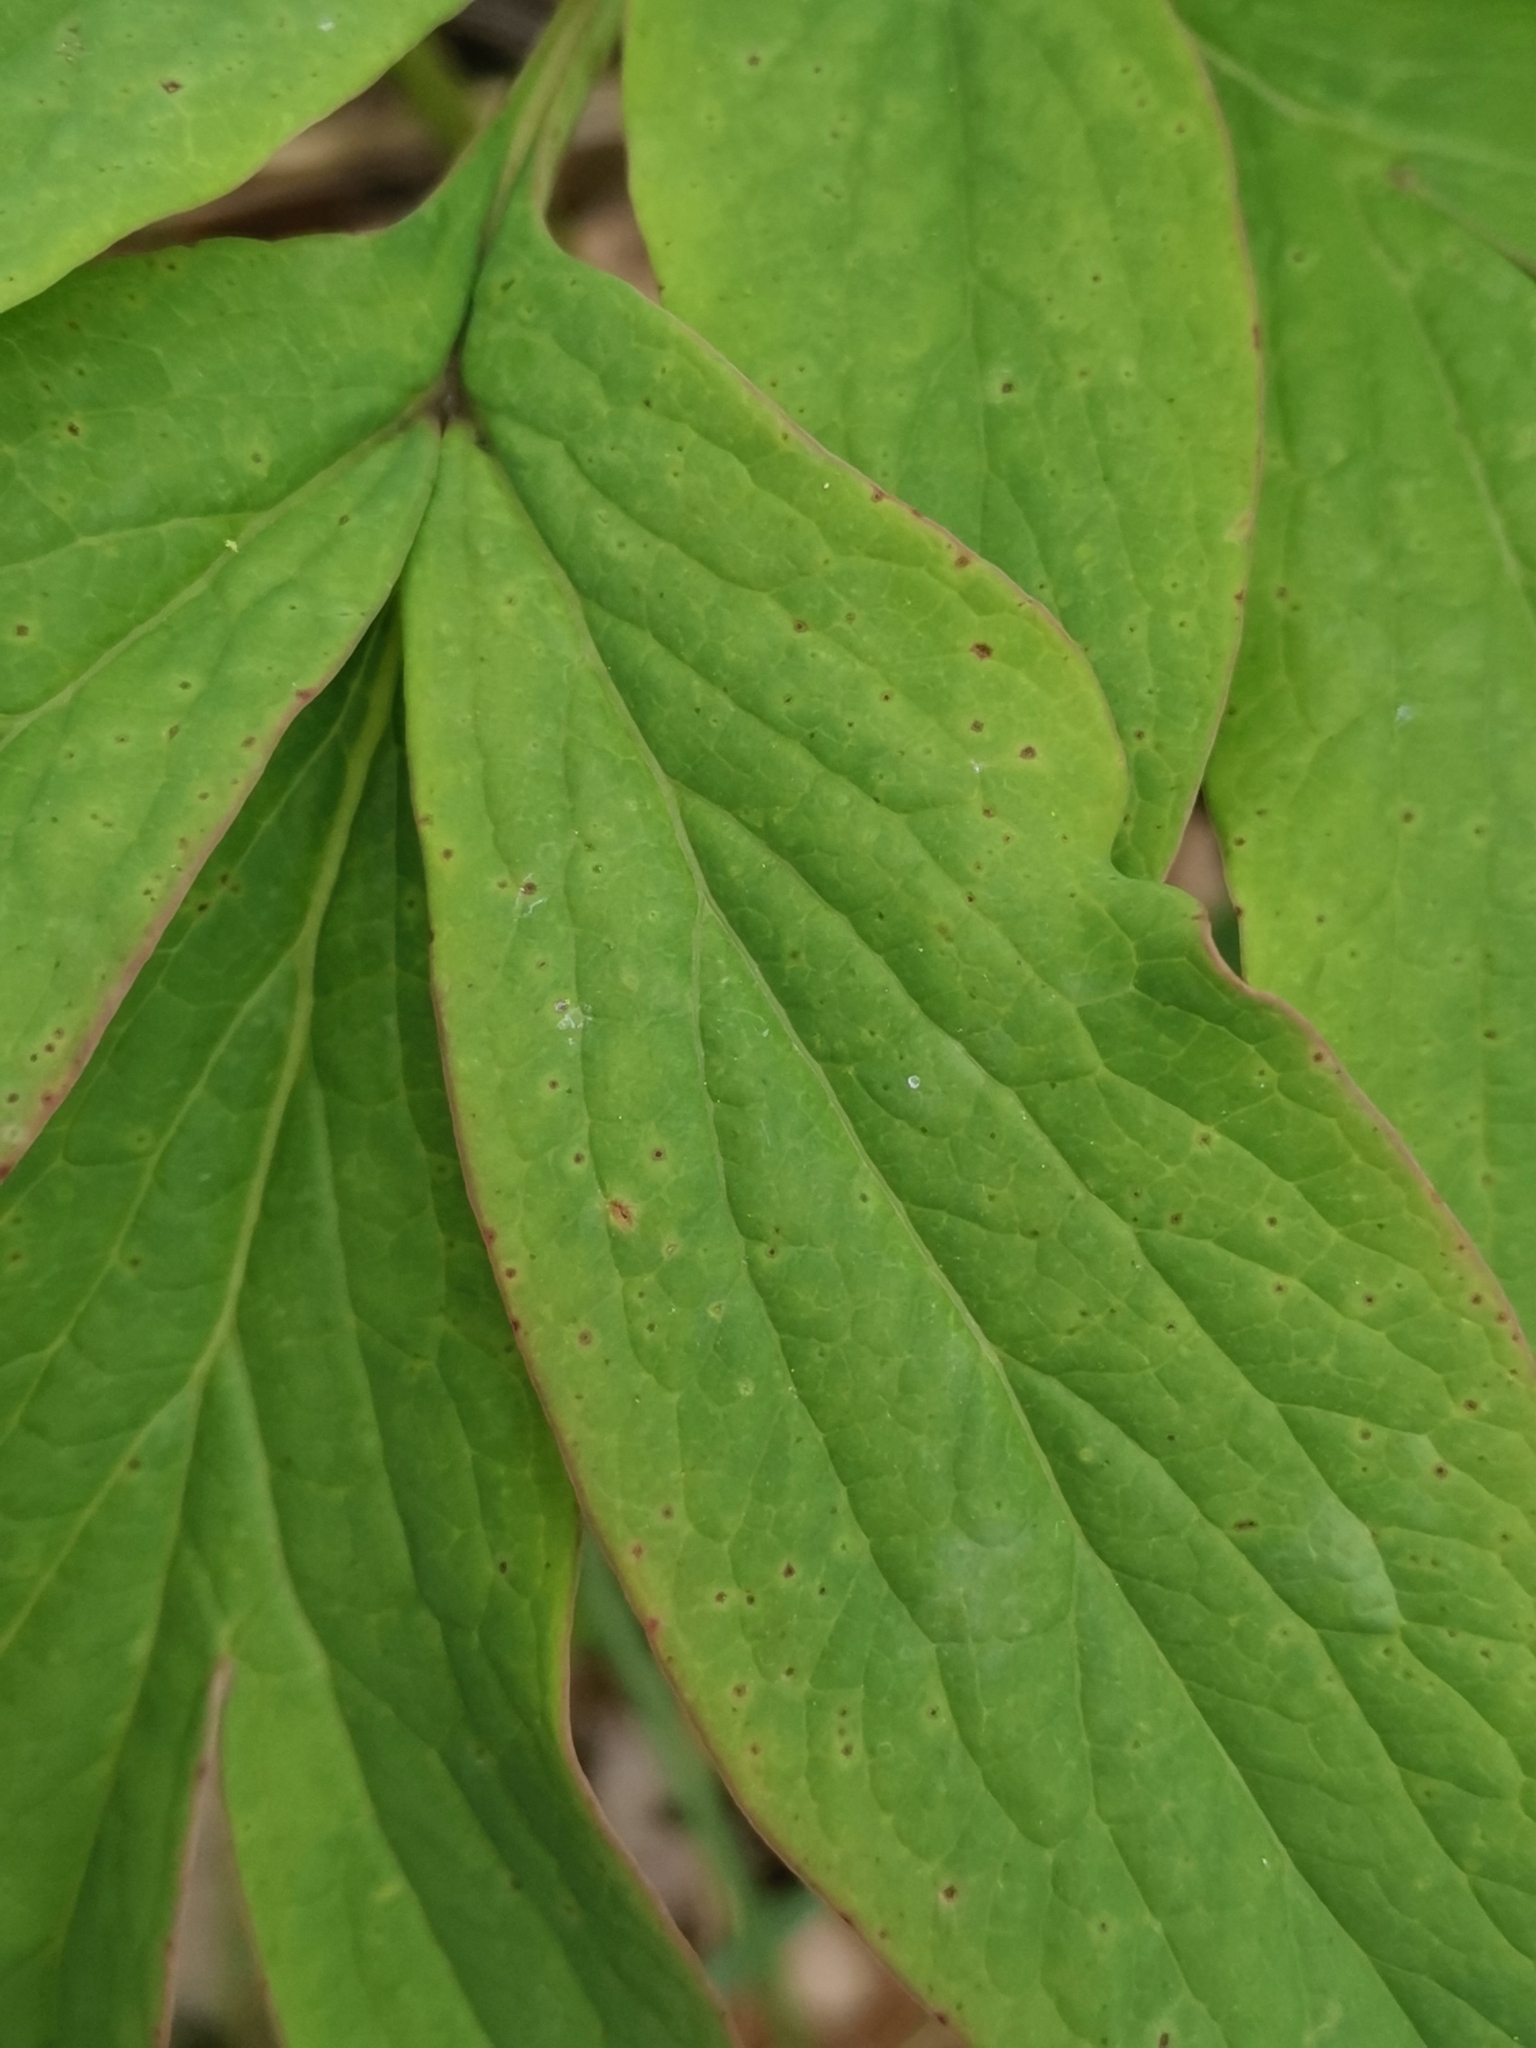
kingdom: Plantae
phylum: Tracheophyta
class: Magnoliopsida
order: Saxifragales
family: Paeoniaceae
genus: Paeonia
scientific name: Paeonia officinalis
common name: Common peony
